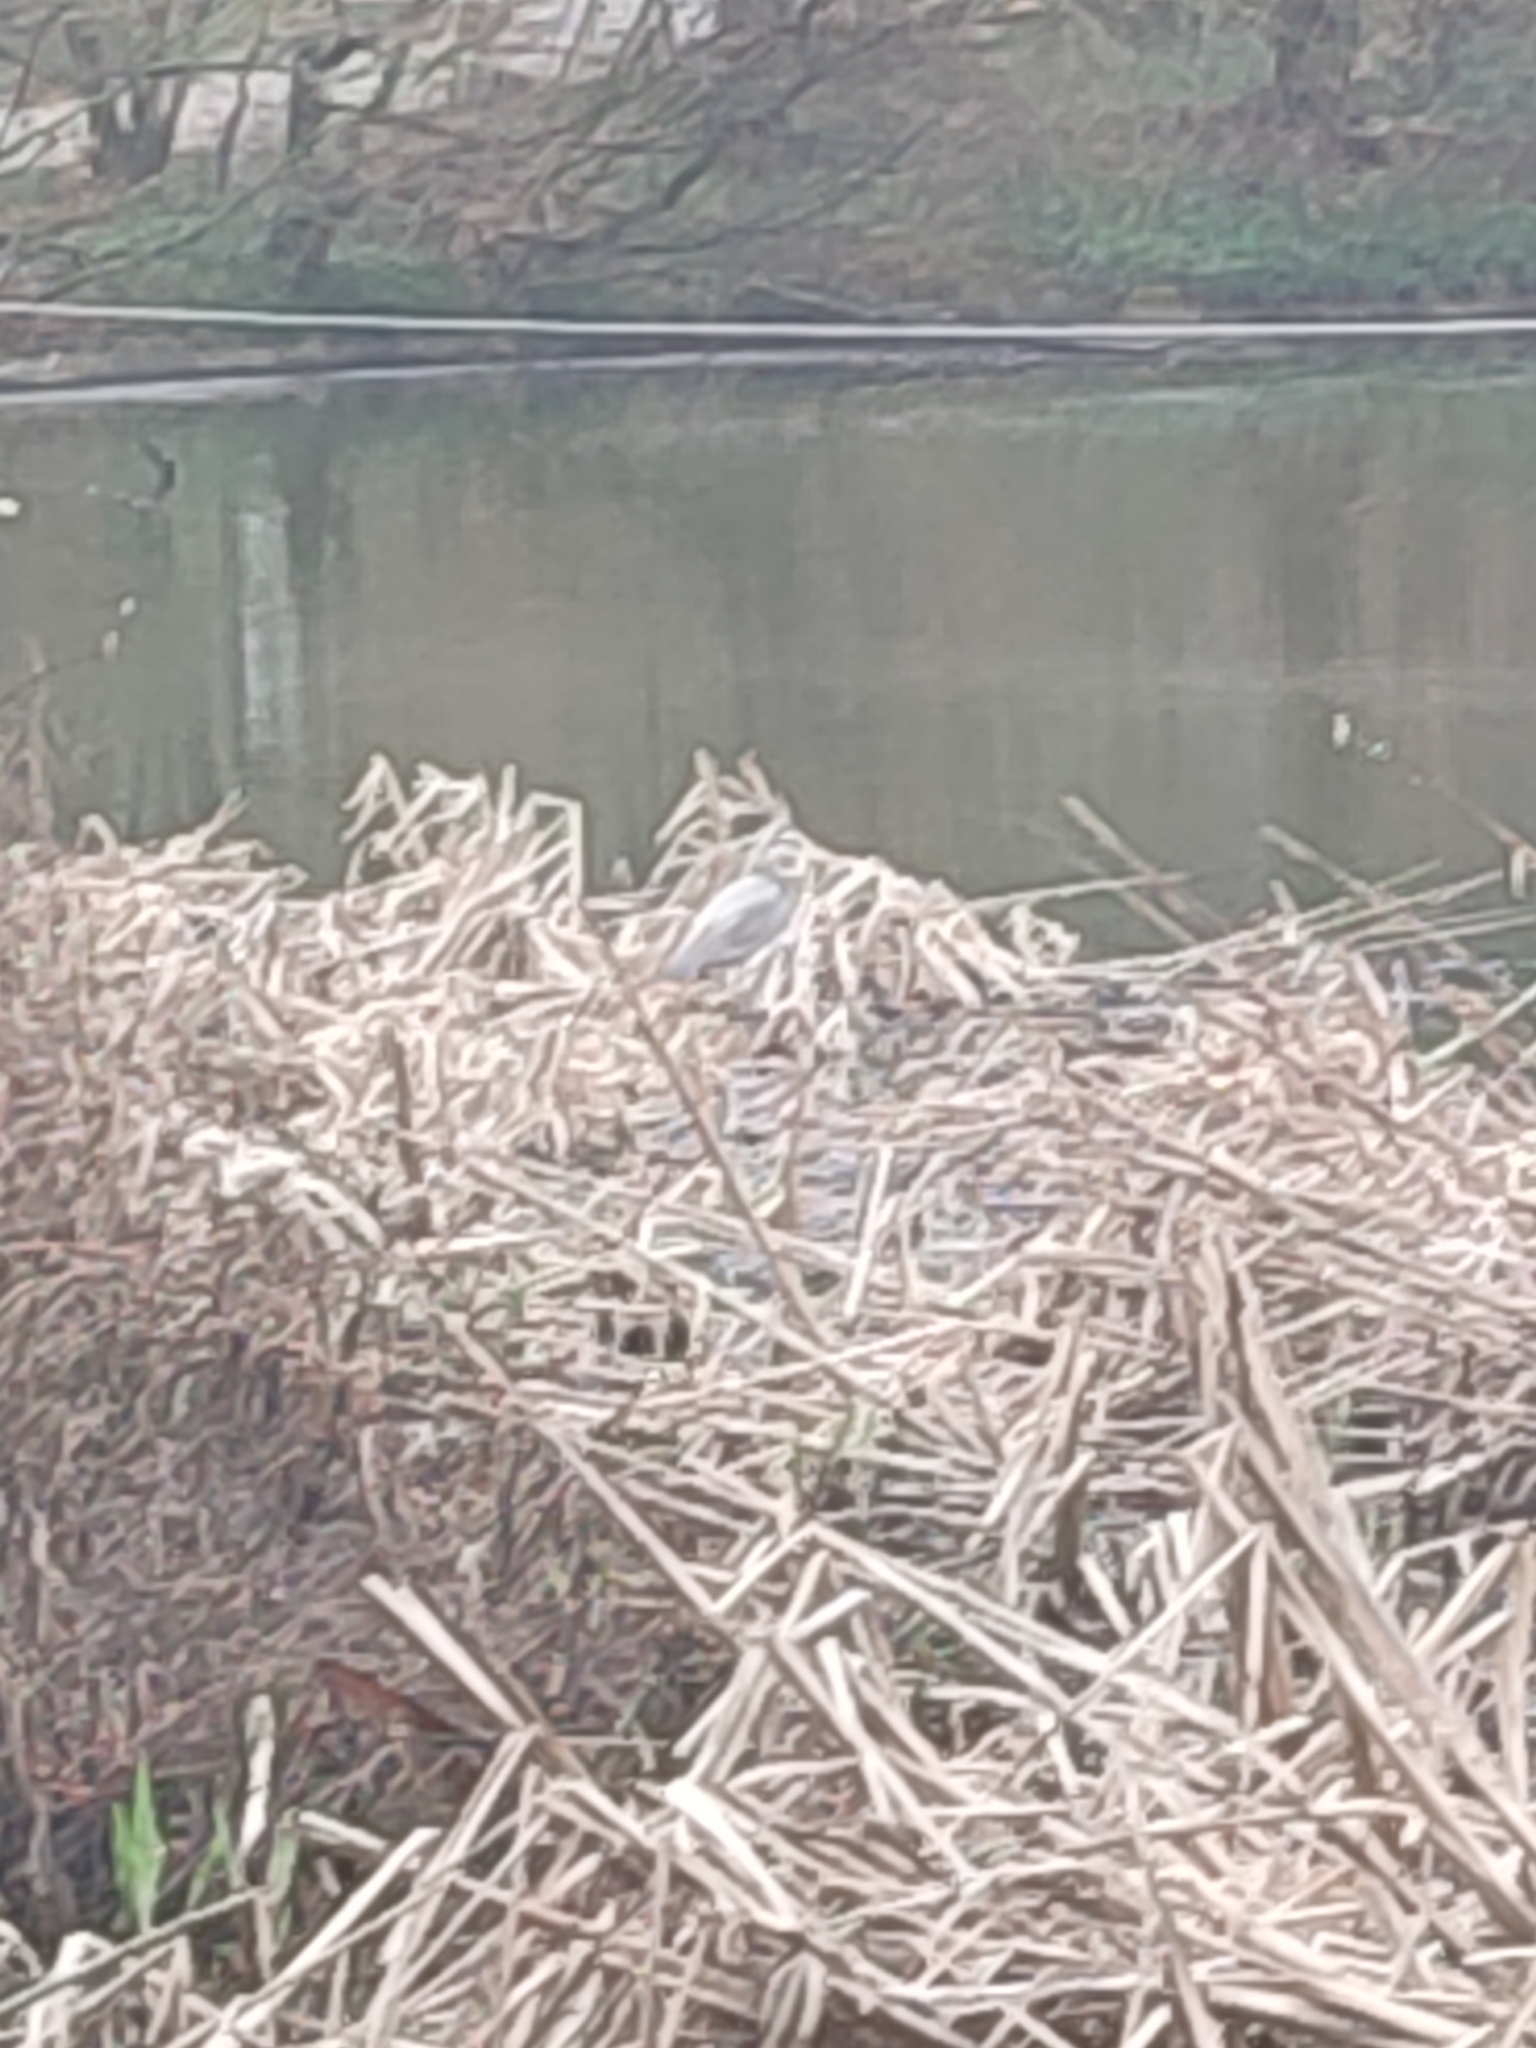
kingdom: Animalia
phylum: Chordata
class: Aves
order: Pelecaniformes
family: Ardeidae
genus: Ardea
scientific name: Ardea cinerea
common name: Grey heron
